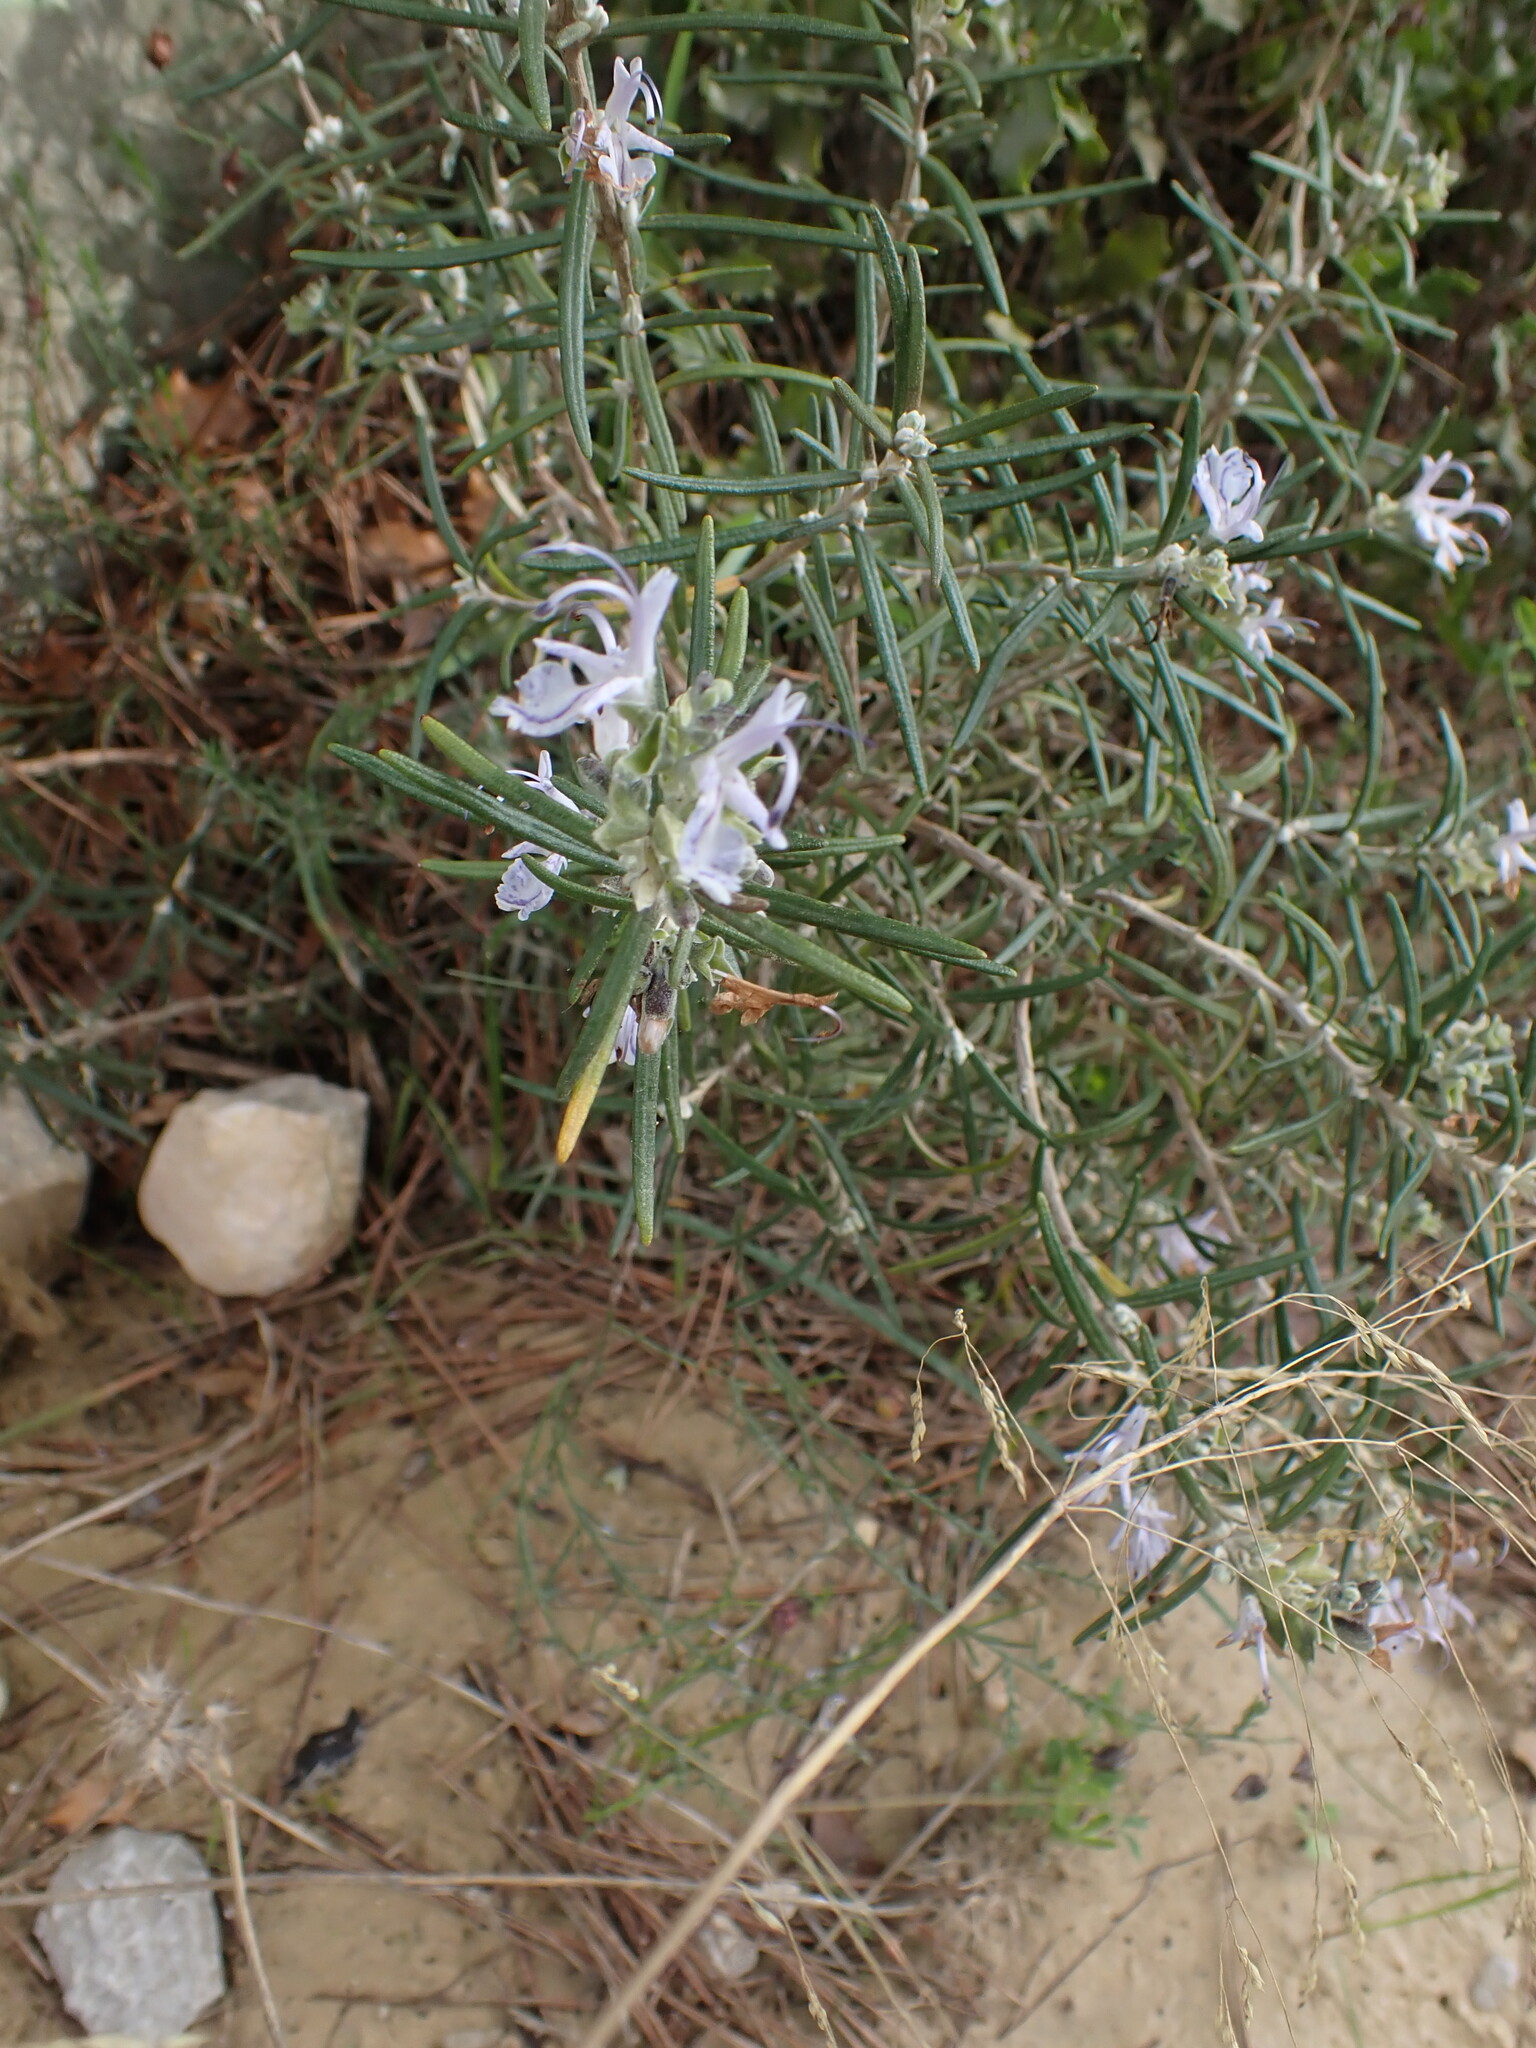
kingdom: Plantae
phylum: Tracheophyta
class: Magnoliopsida
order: Lamiales
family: Lamiaceae
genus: Salvia
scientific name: Salvia rosmarinus
